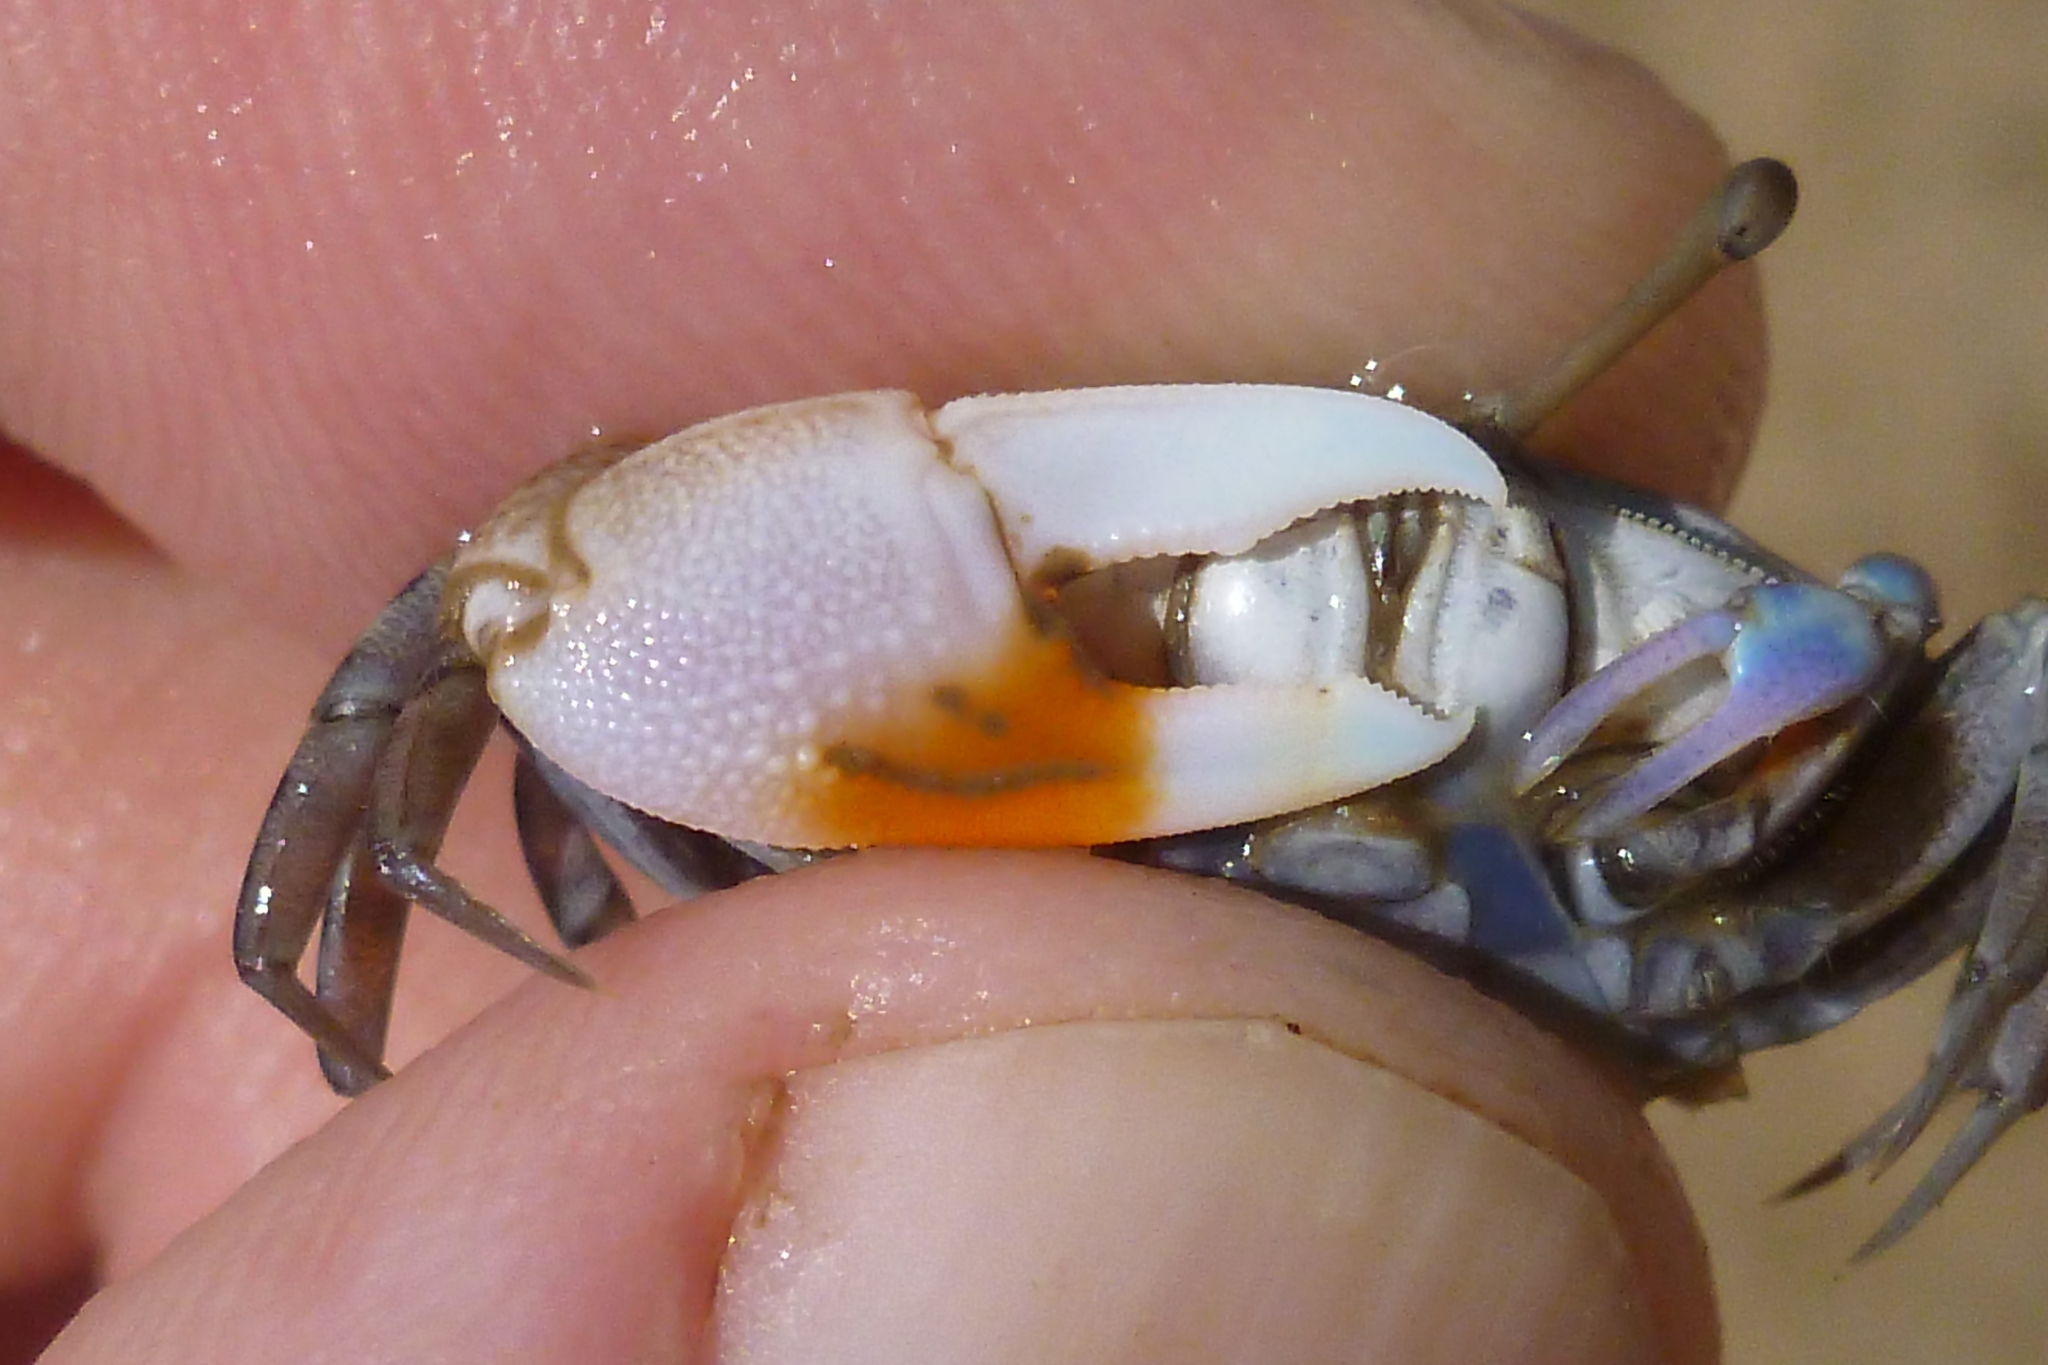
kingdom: Animalia
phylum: Arthropoda
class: Malacostraca
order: Decapoda
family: Ocypodidae
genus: Gelasimus
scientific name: Gelasimus vomeris
